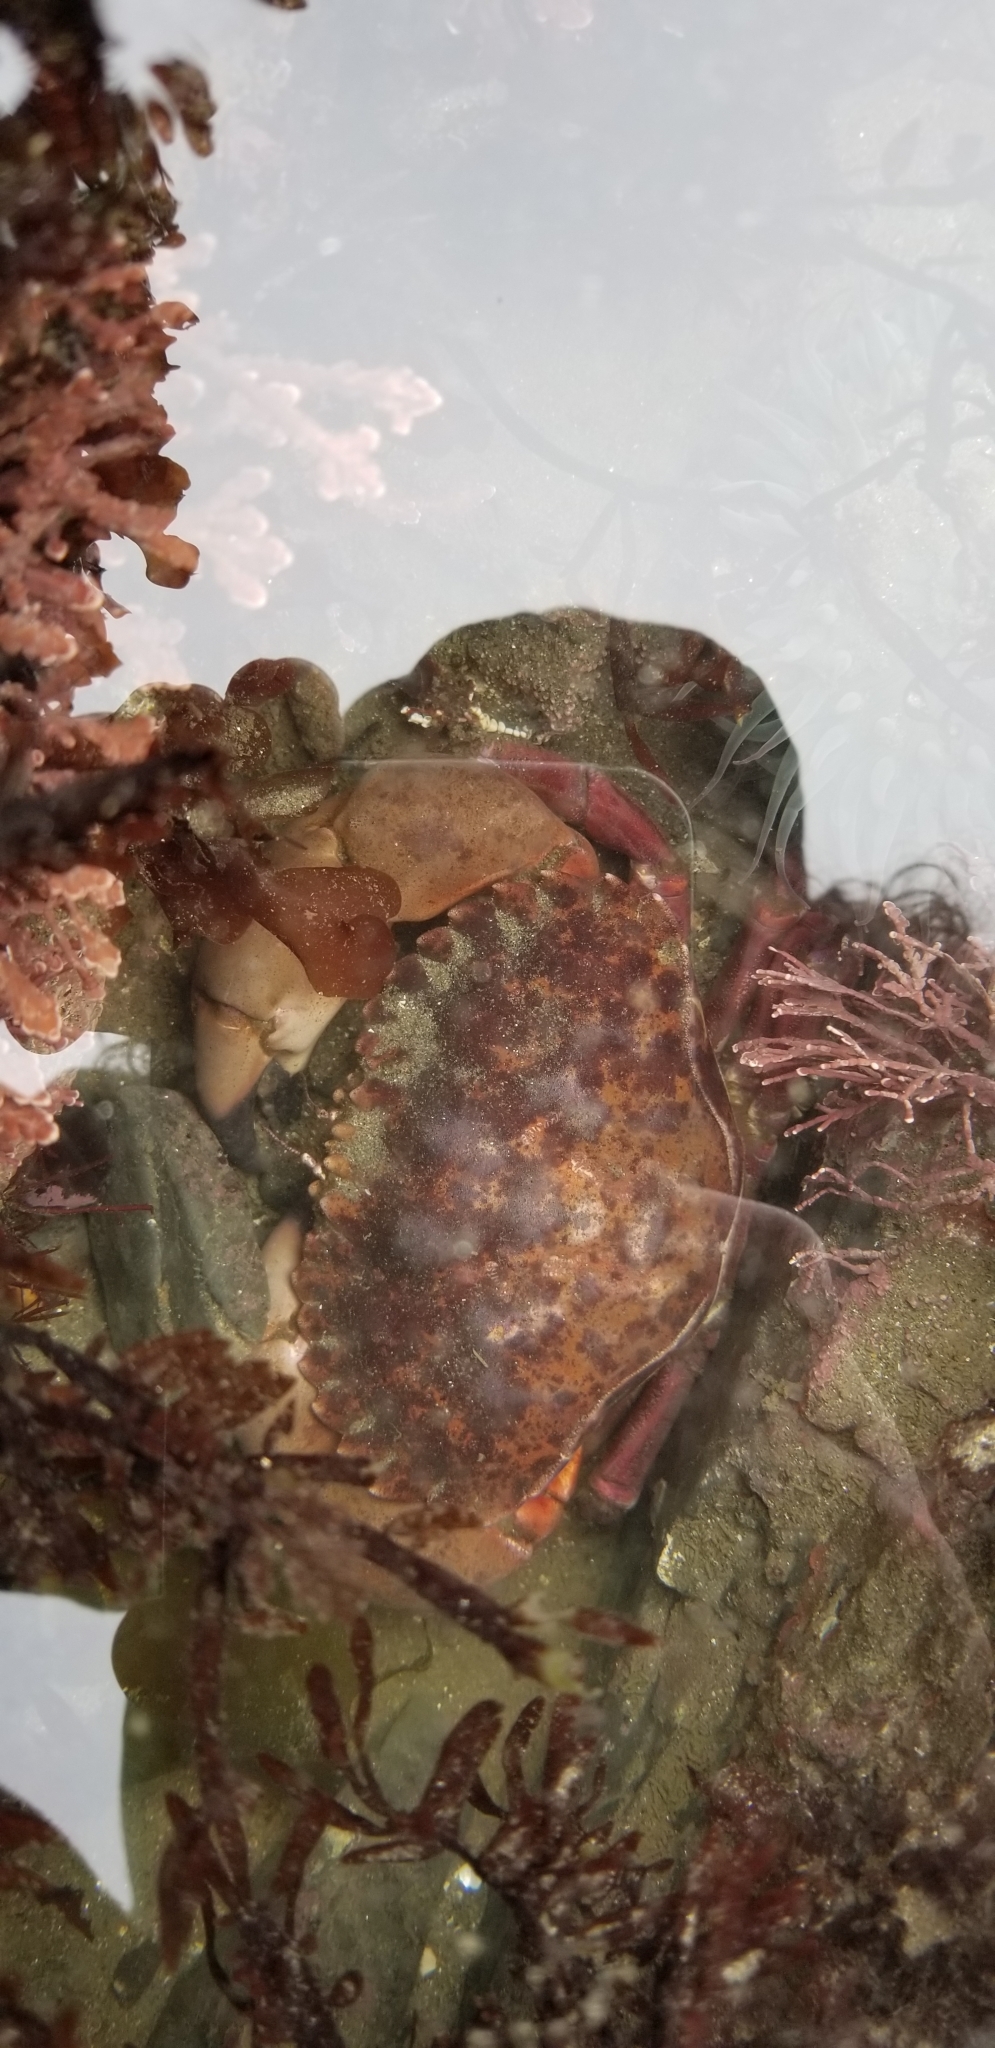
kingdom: Animalia
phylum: Arthropoda
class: Malacostraca
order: Decapoda
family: Cancridae
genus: Romaleon
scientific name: Romaleon antennarium
